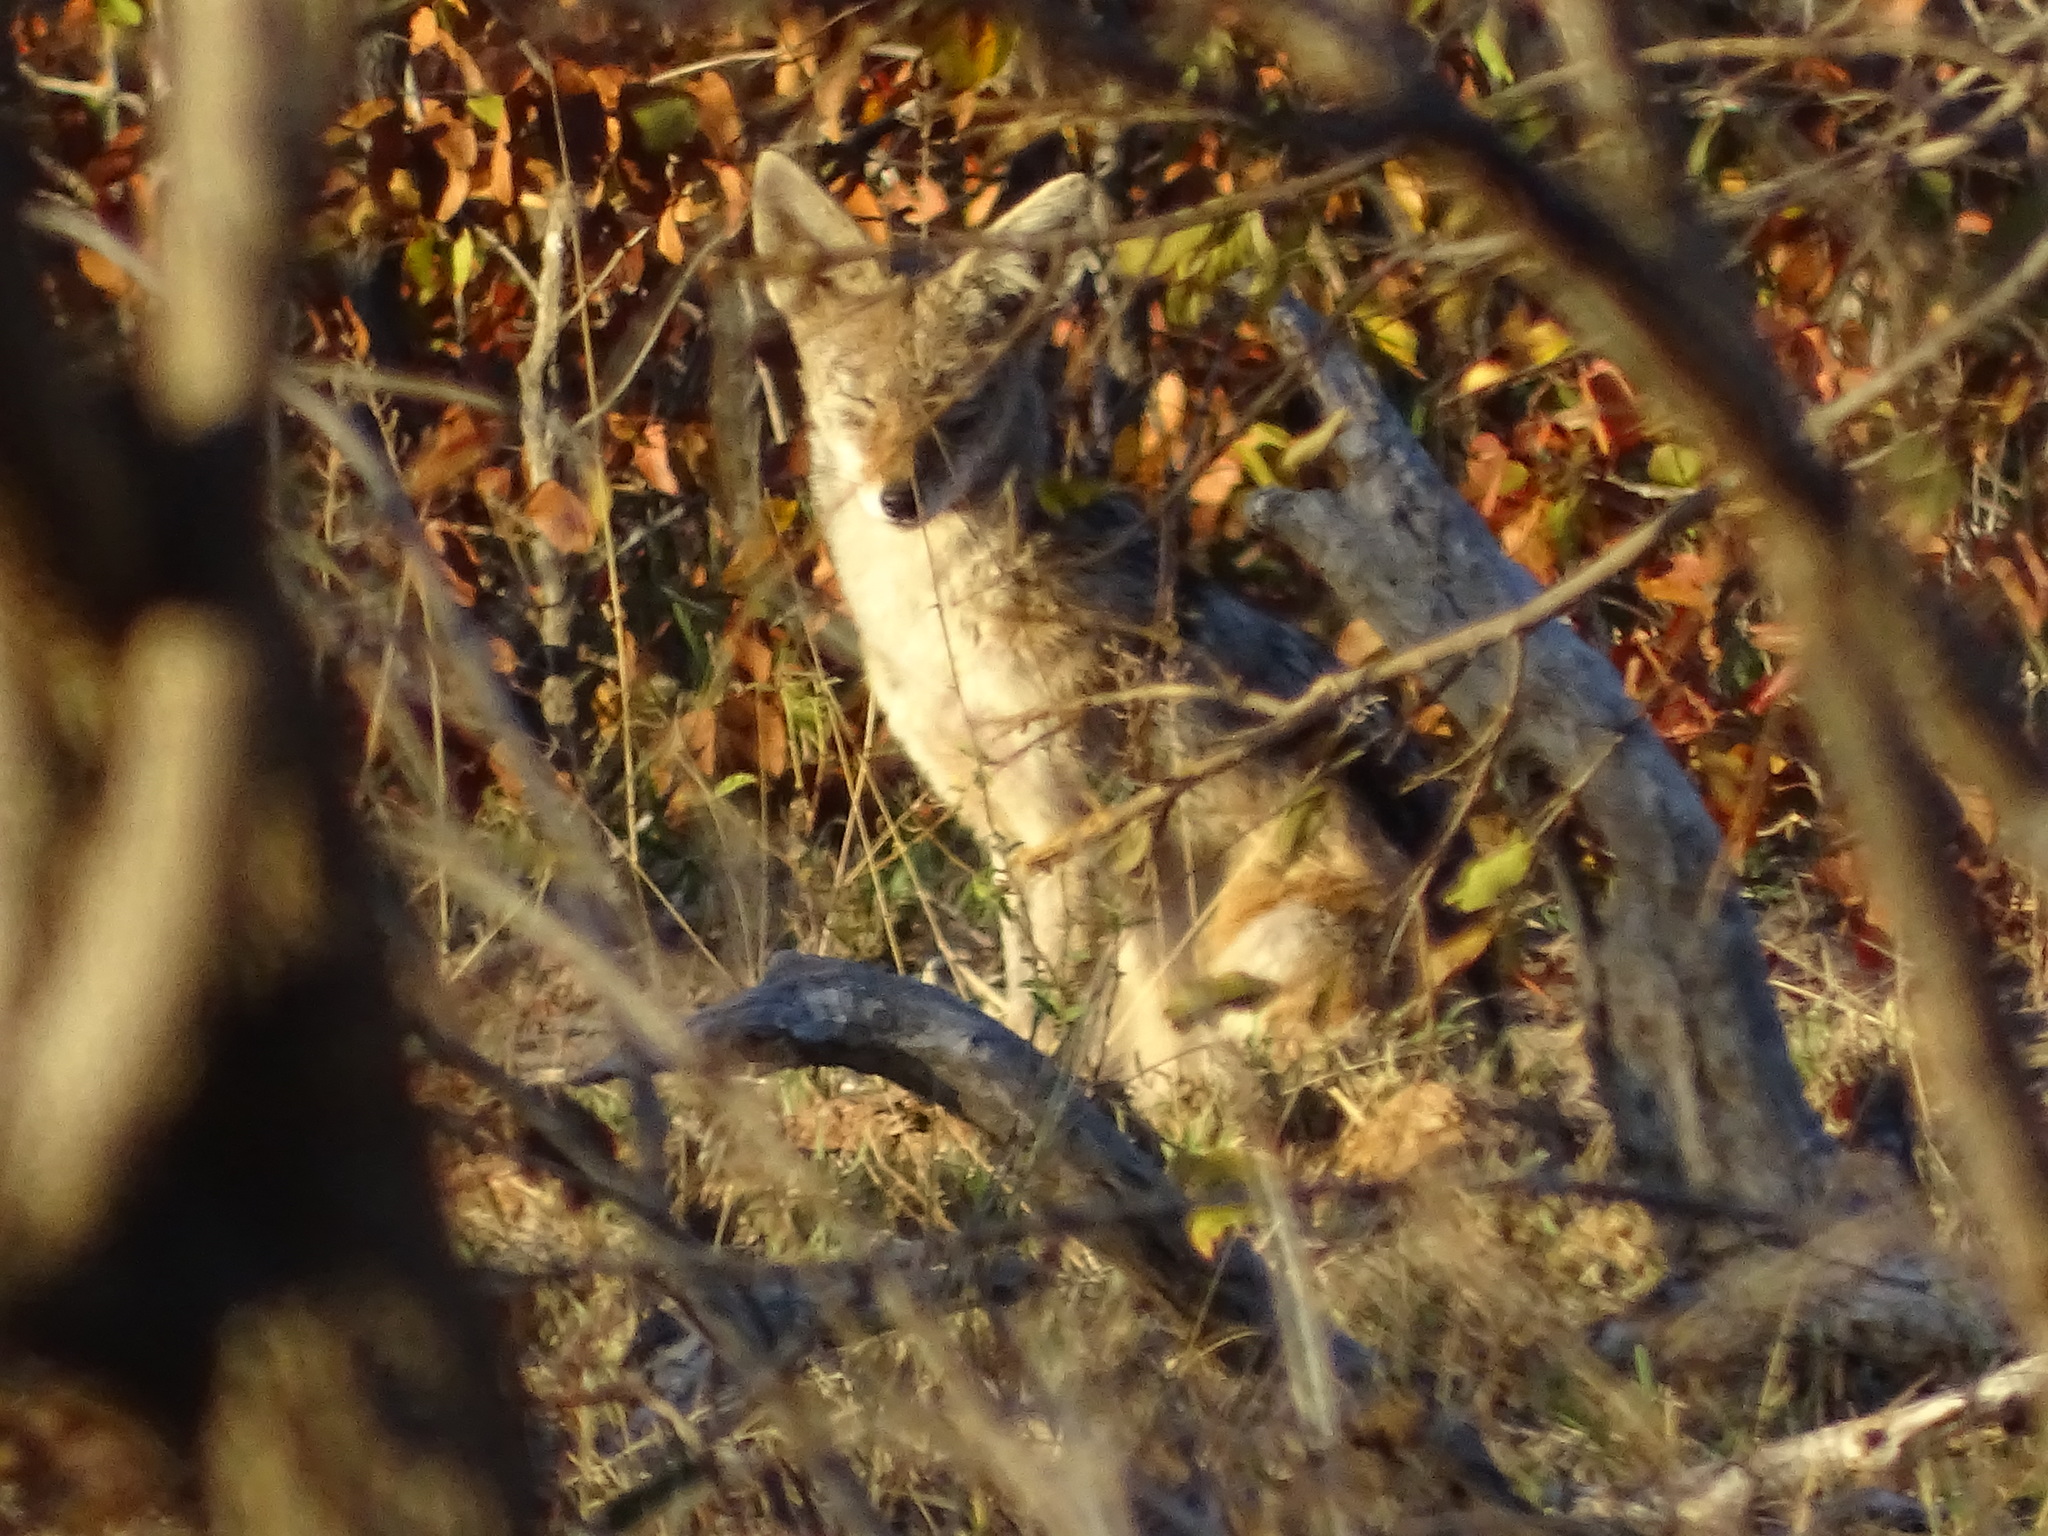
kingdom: Animalia
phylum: Chordata
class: Mammalia
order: Carnivora
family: Canidae
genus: Lupulella
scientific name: Lupulella
